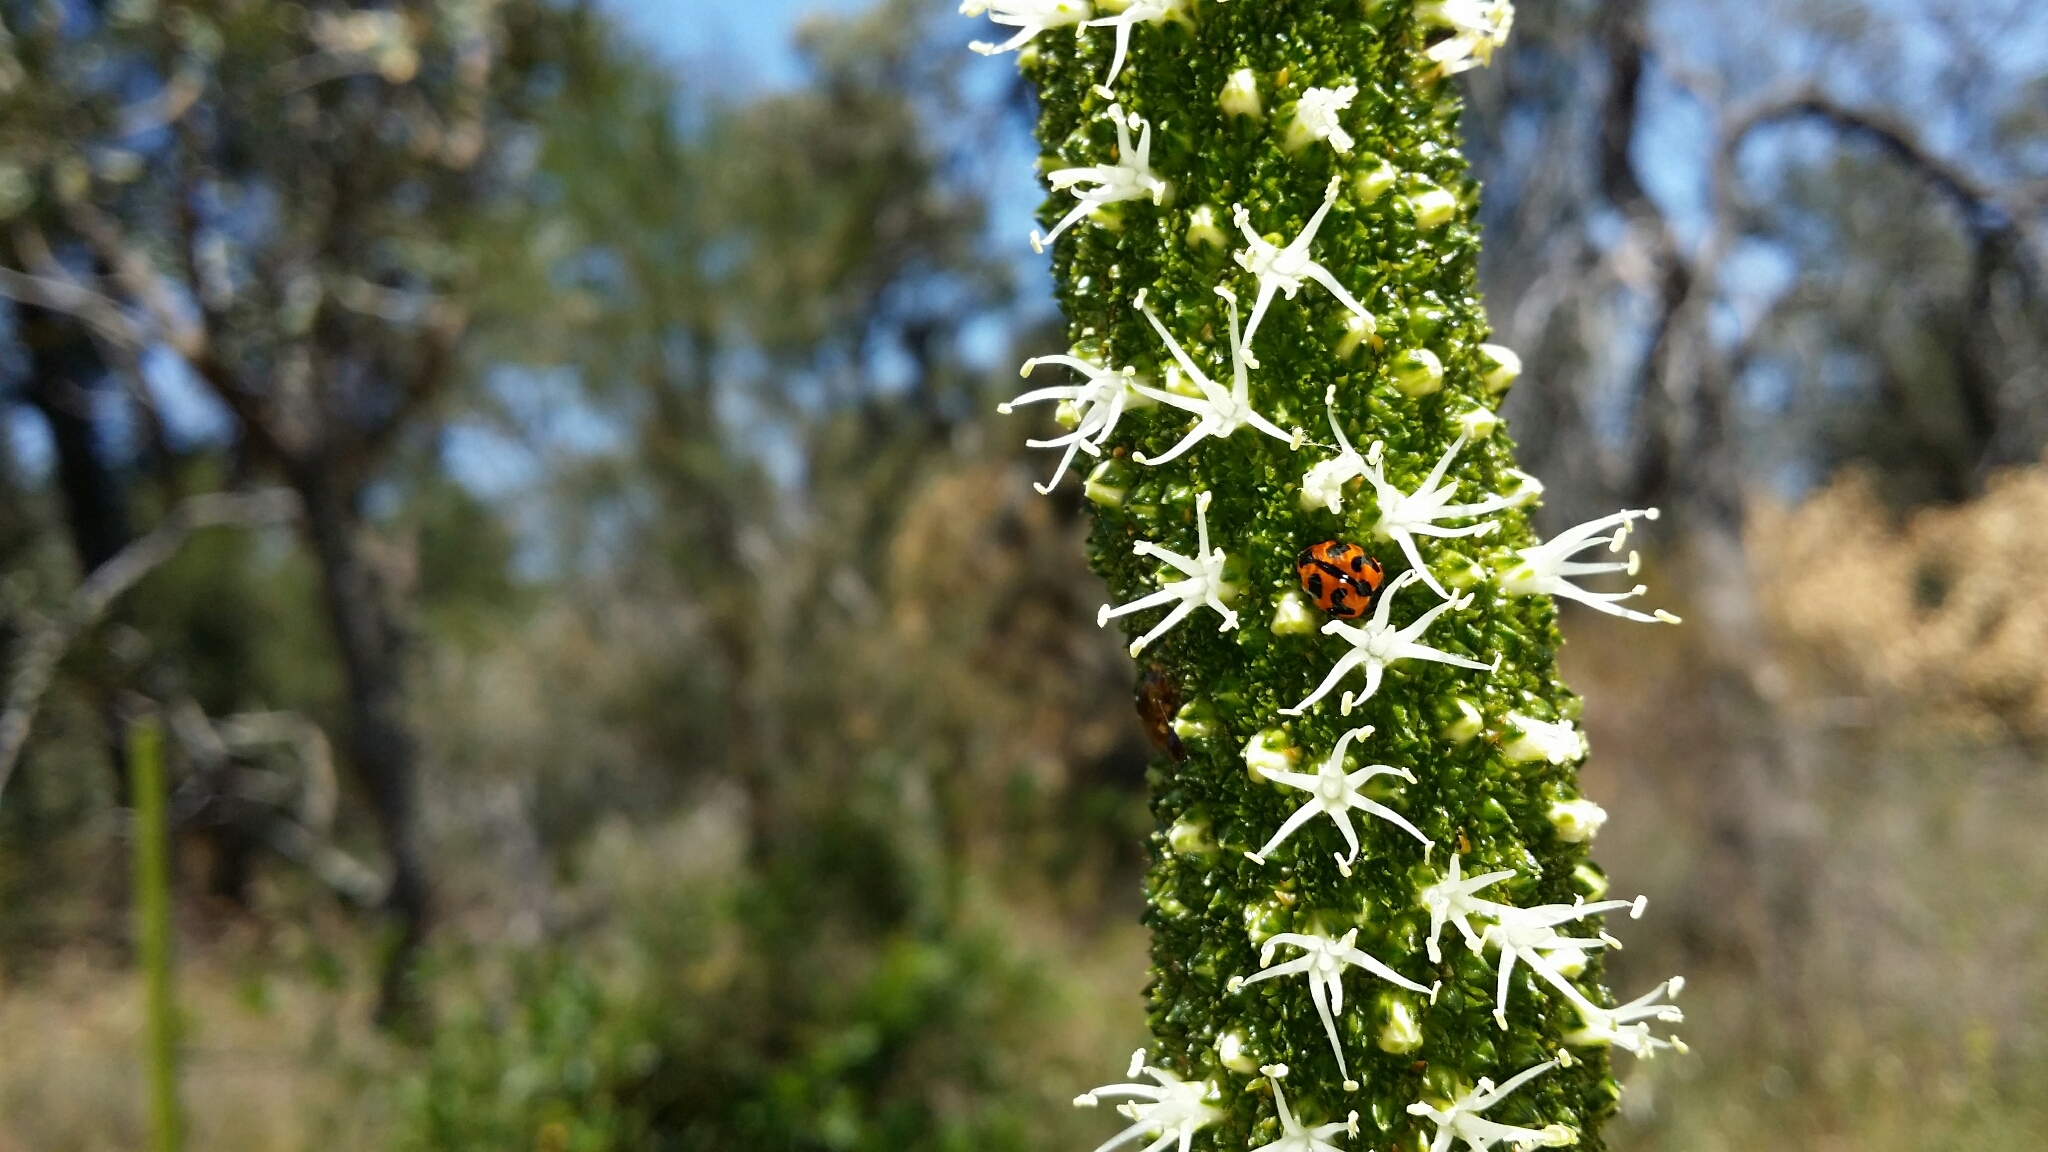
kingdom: Animalia
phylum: Arthropoda
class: Insecta
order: Coleoptera
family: Coccinellidae
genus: Coccinella
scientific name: Coccinella transversalis
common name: Transverse lady beetle
